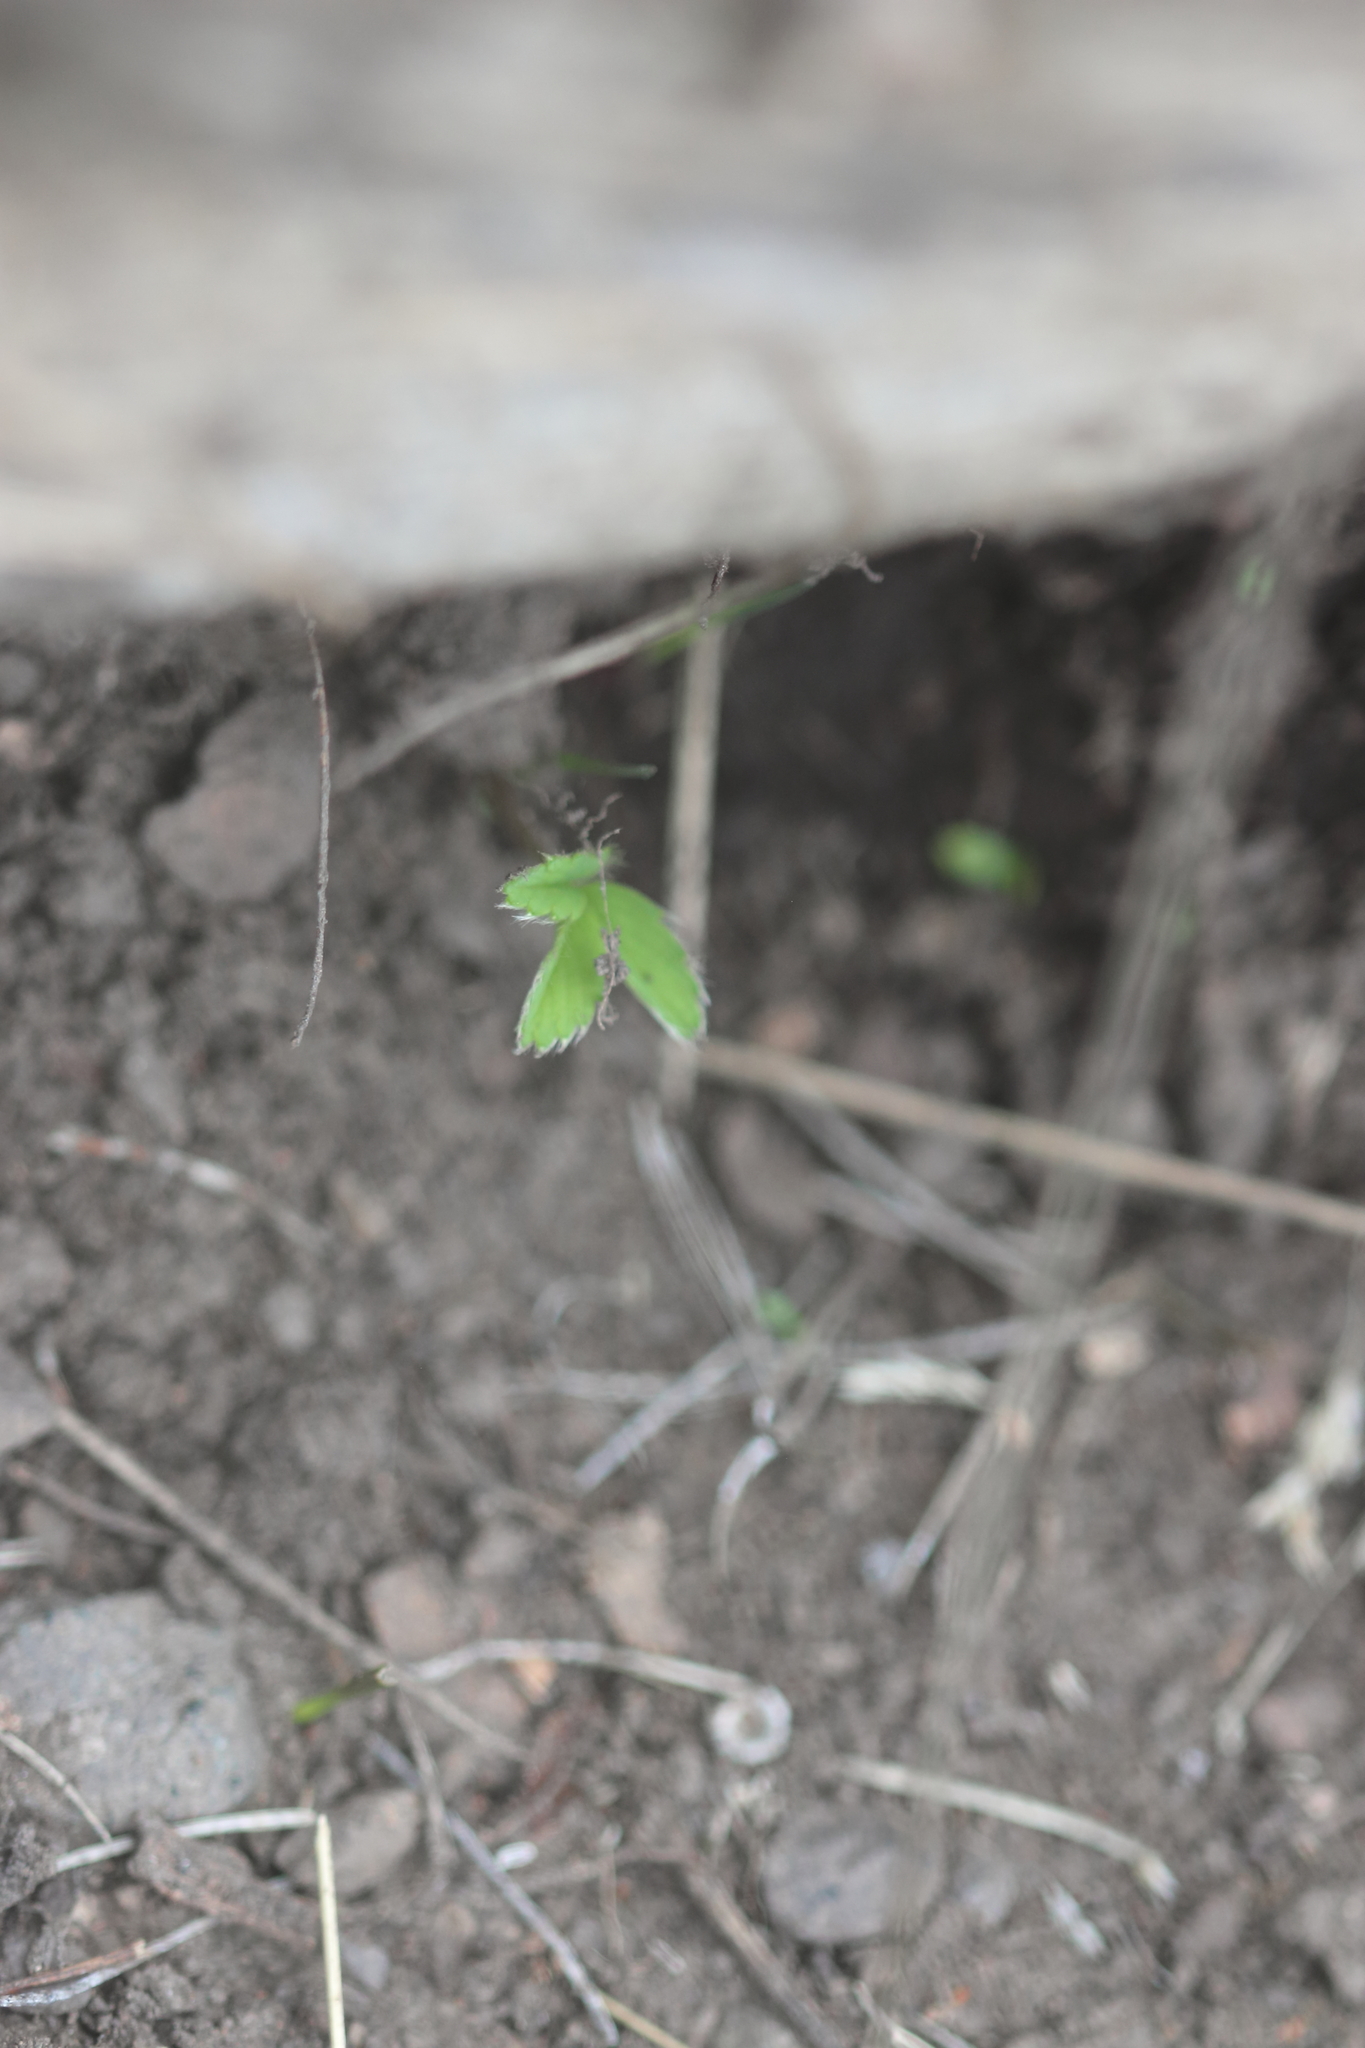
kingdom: Plantae
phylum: Tracheophyta
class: Magnoliopsida
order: Rosales
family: Rosaceae
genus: Fragaria
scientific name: Fragaria virginiana
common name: Thickleaved wild strawberry
